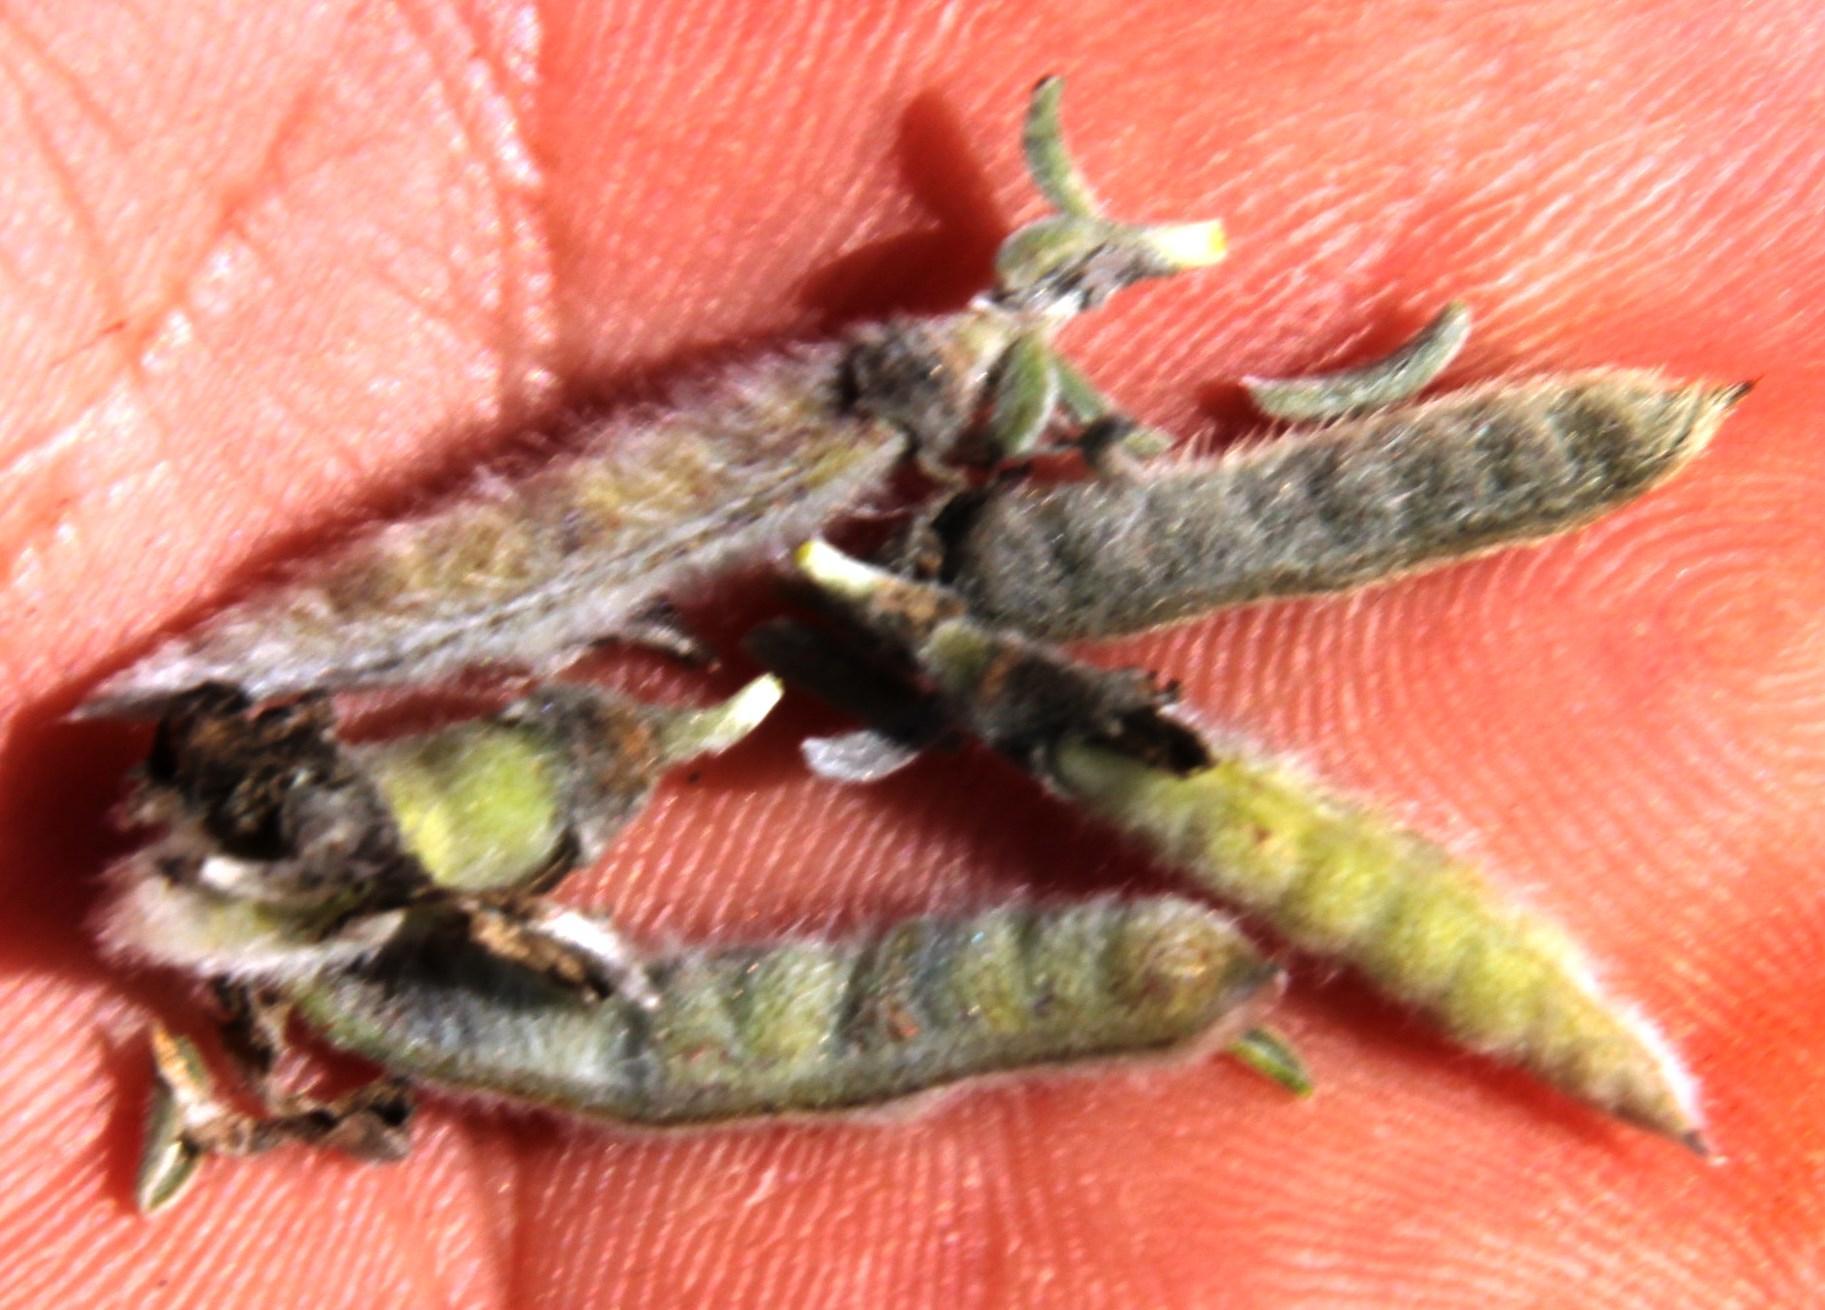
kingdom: Plantae
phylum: Tracheophyta
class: Magnoliopsida
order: Fabales
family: Fabaceae
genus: Polhillia
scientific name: Polhillia curtisiae
